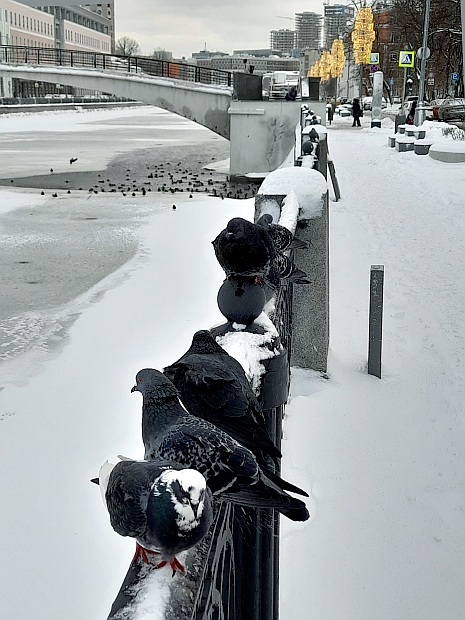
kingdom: Animalia
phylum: Chordata
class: Aves
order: Columbiformes
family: Columbidae
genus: Columba
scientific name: Columba livia
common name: Rock pigeon
